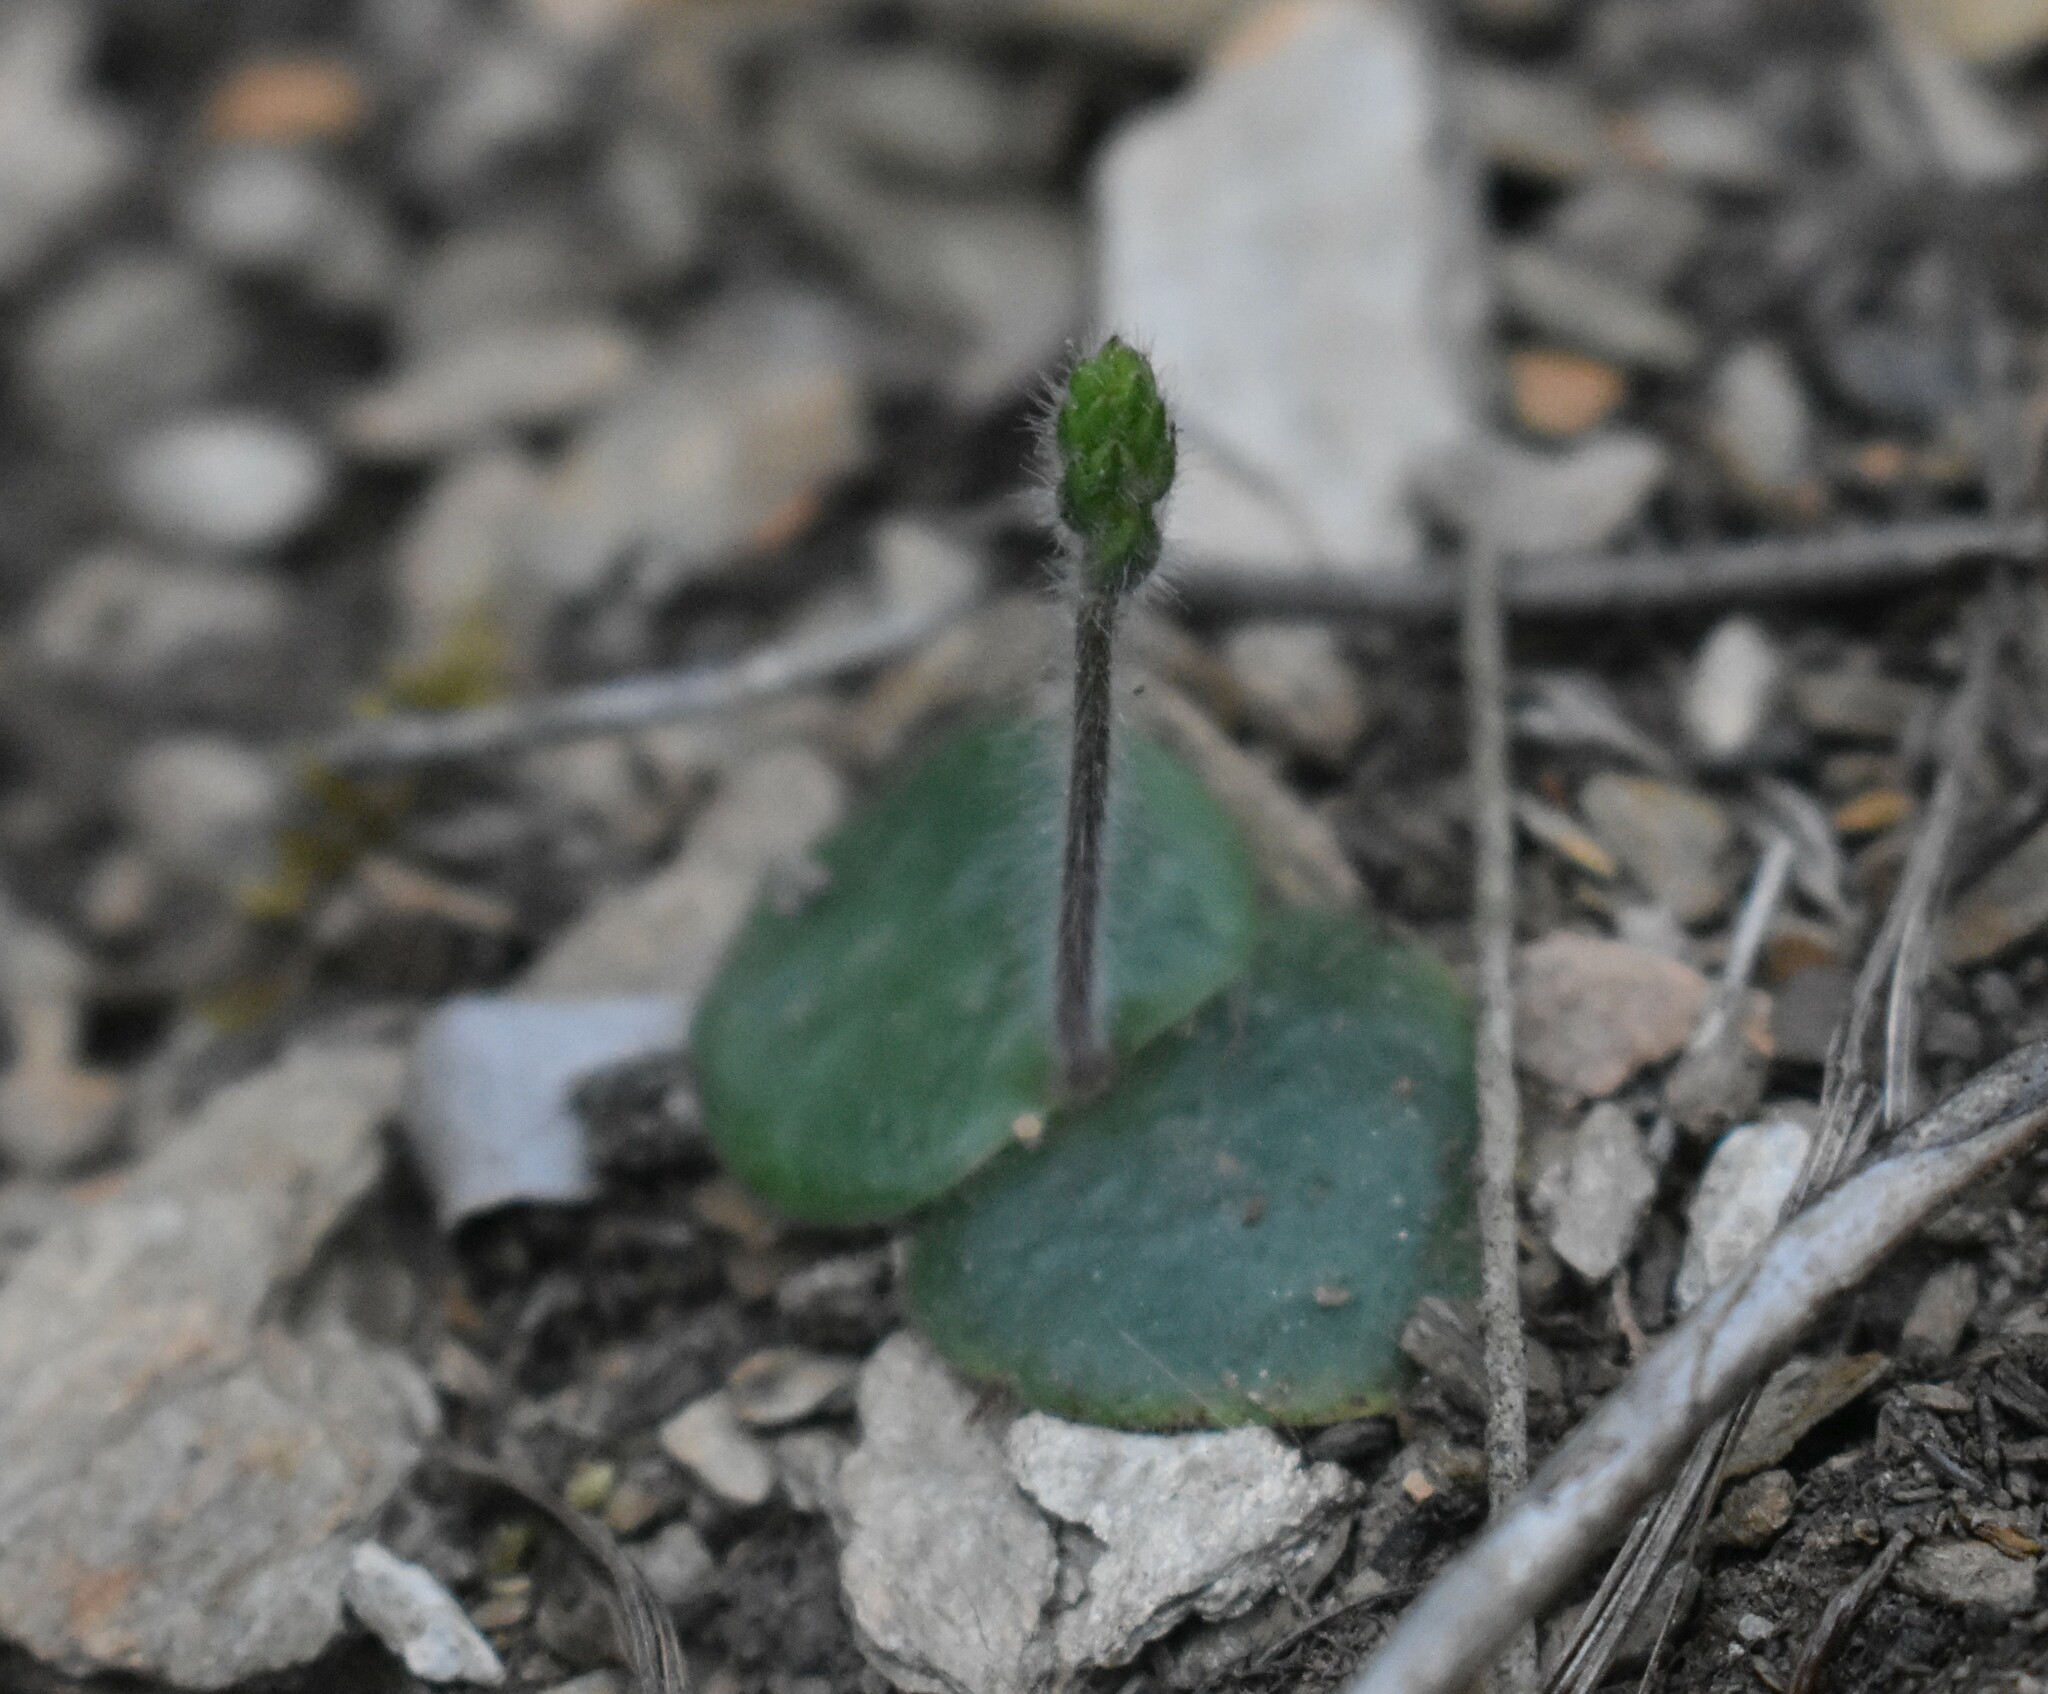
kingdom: Plantae
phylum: Tracheophyta
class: Liliopsida
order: Asparagales
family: Orchidaceae
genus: Holothrix
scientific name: Holothrix villosa
